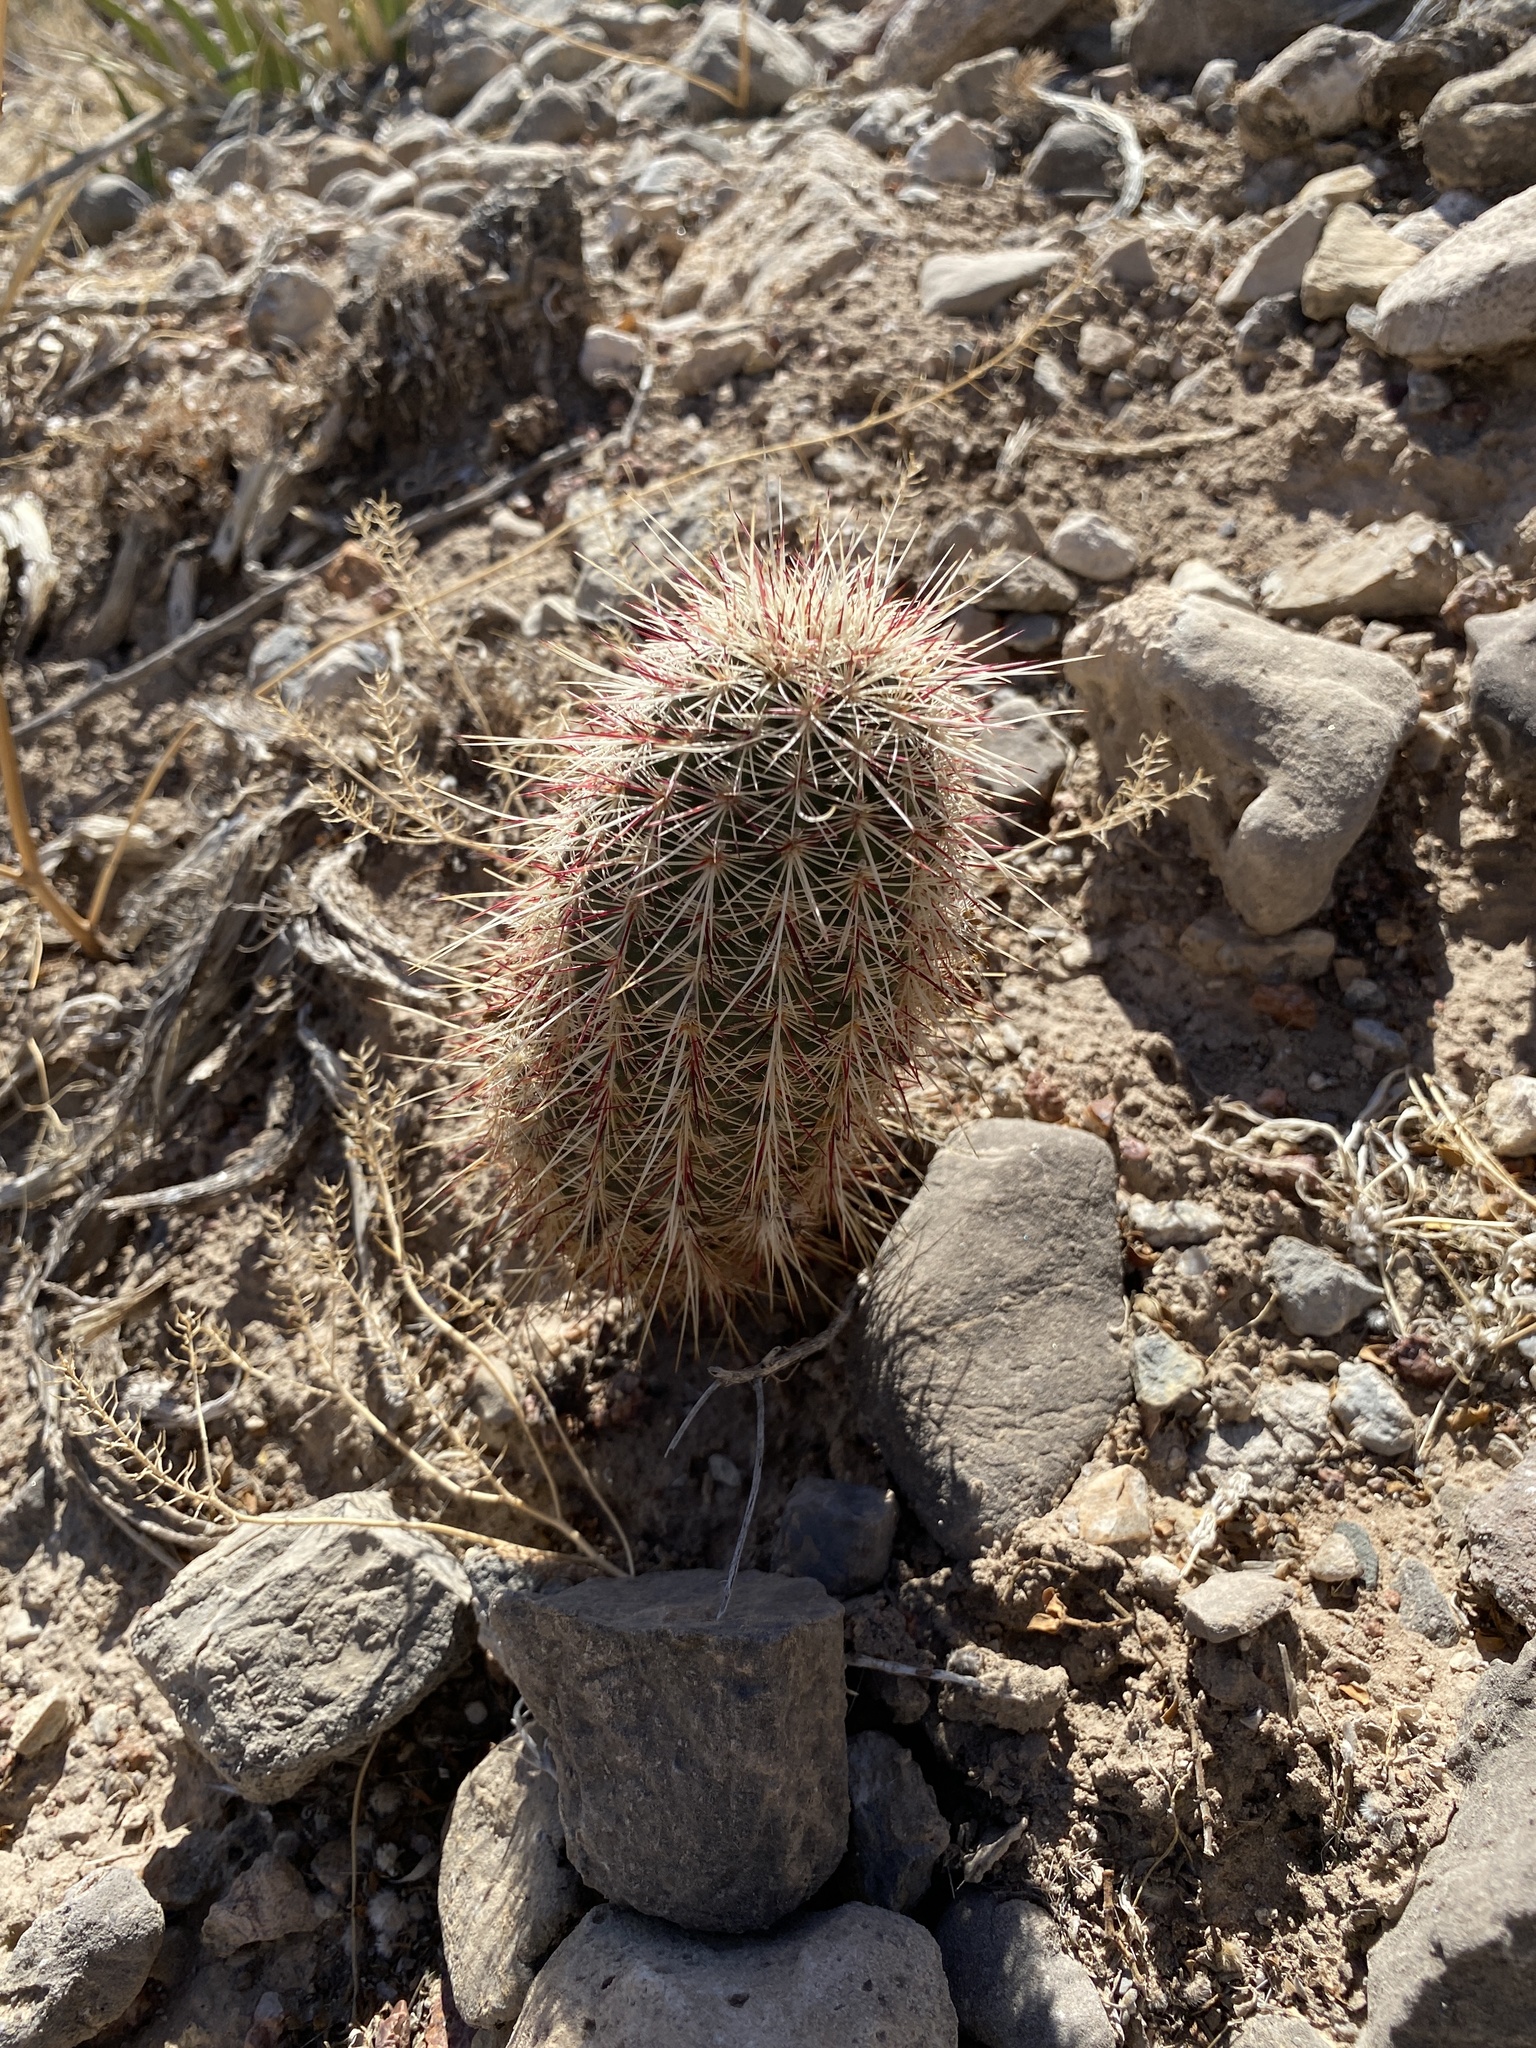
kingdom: Plantae
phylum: Tracheophyta
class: Magnoliopsida
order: Caryophyllales
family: Cactaceae
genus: Echinocereus
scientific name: Echinocereus viridiflorus
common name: Nylon hedgehog cactus
